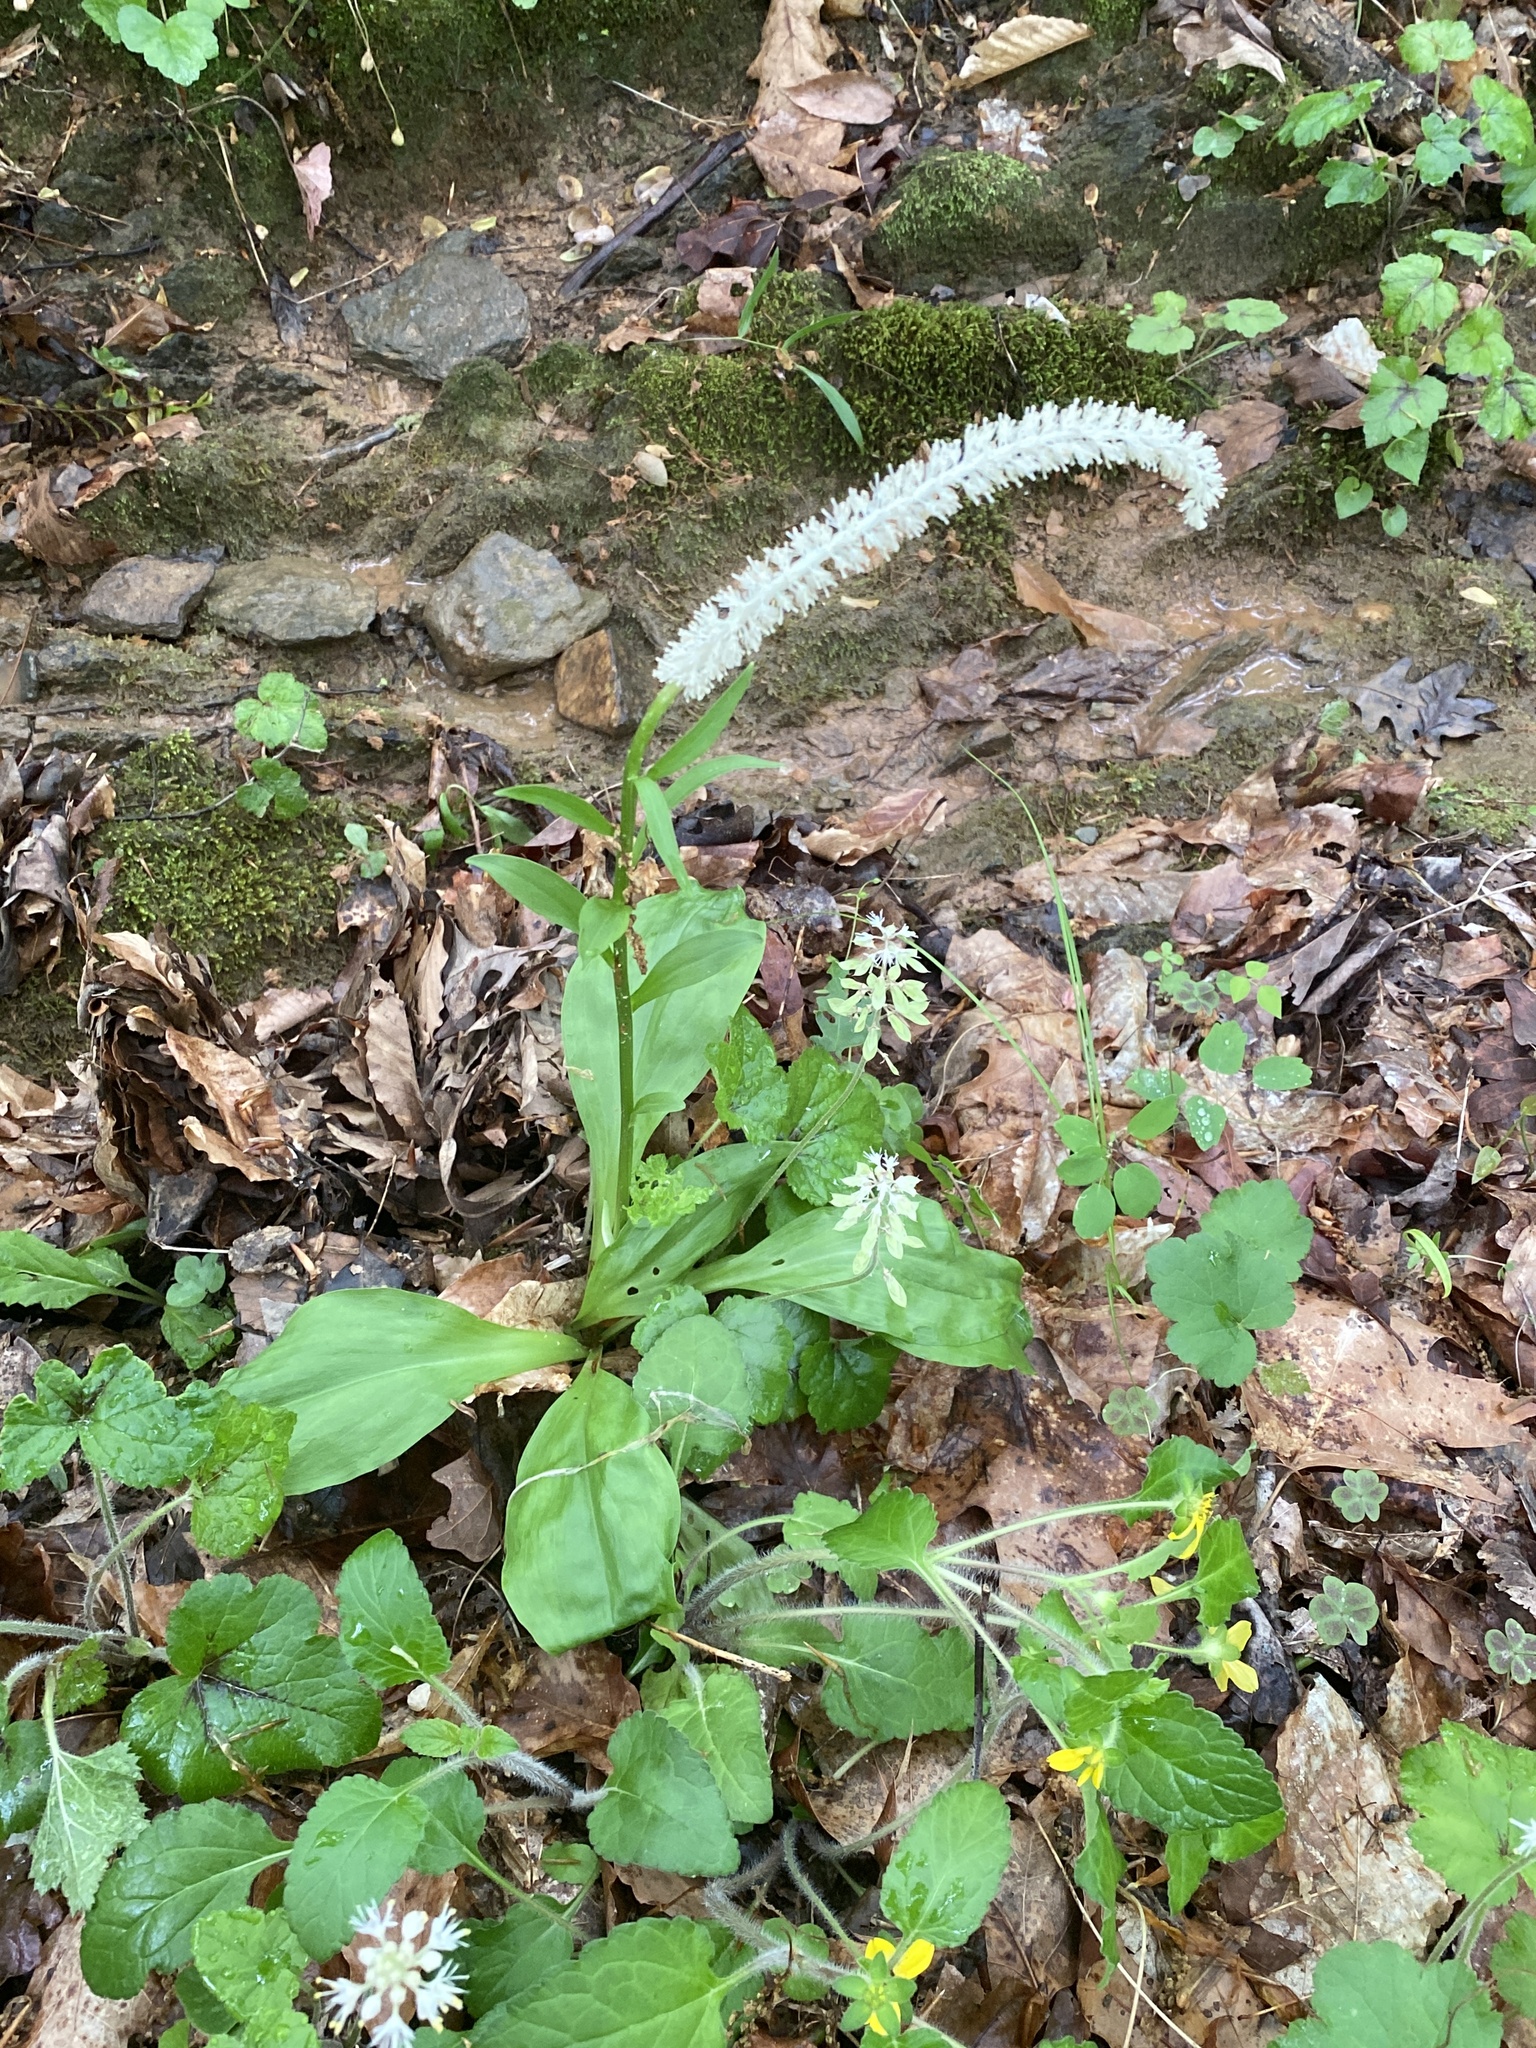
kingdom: Plantae
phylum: Tracheophyta
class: Liliopsida
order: Liliales
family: Melanthiaceae
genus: Chamaelirium
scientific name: Chamaelirium luteum
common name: Fairy-wand
